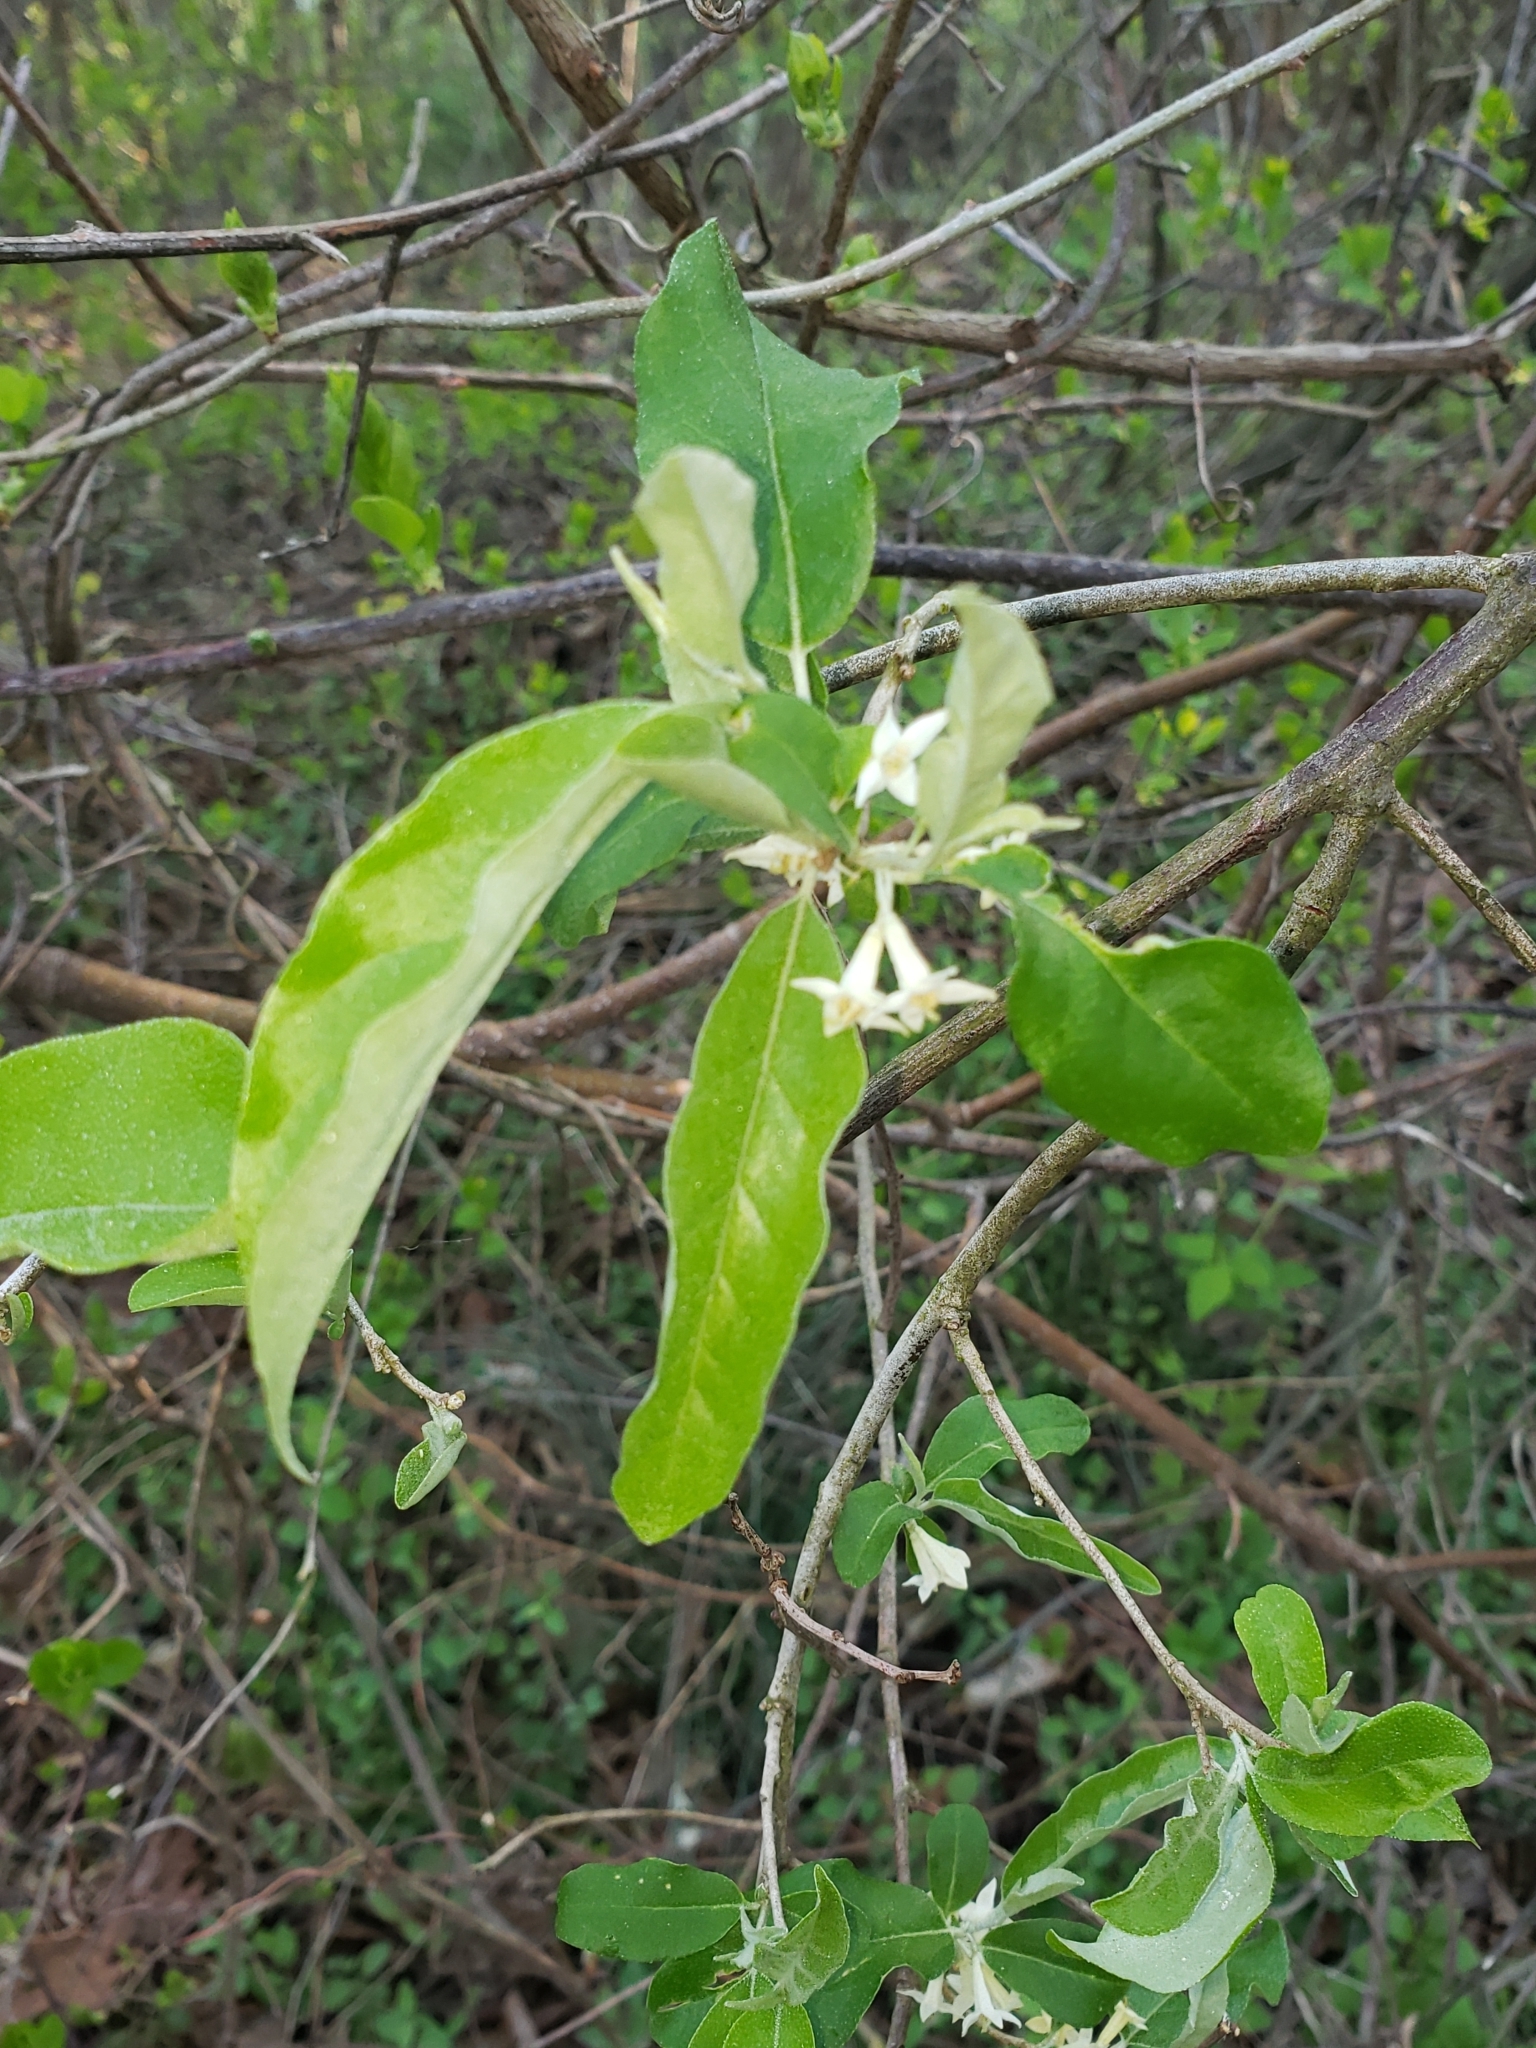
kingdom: Plantae
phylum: Tracheophyta
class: Magnoliopsida
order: Rosales
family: Elaeagnaceae
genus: Elaeagnus
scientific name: Elaeagnus umbellata
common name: Autumn olive
